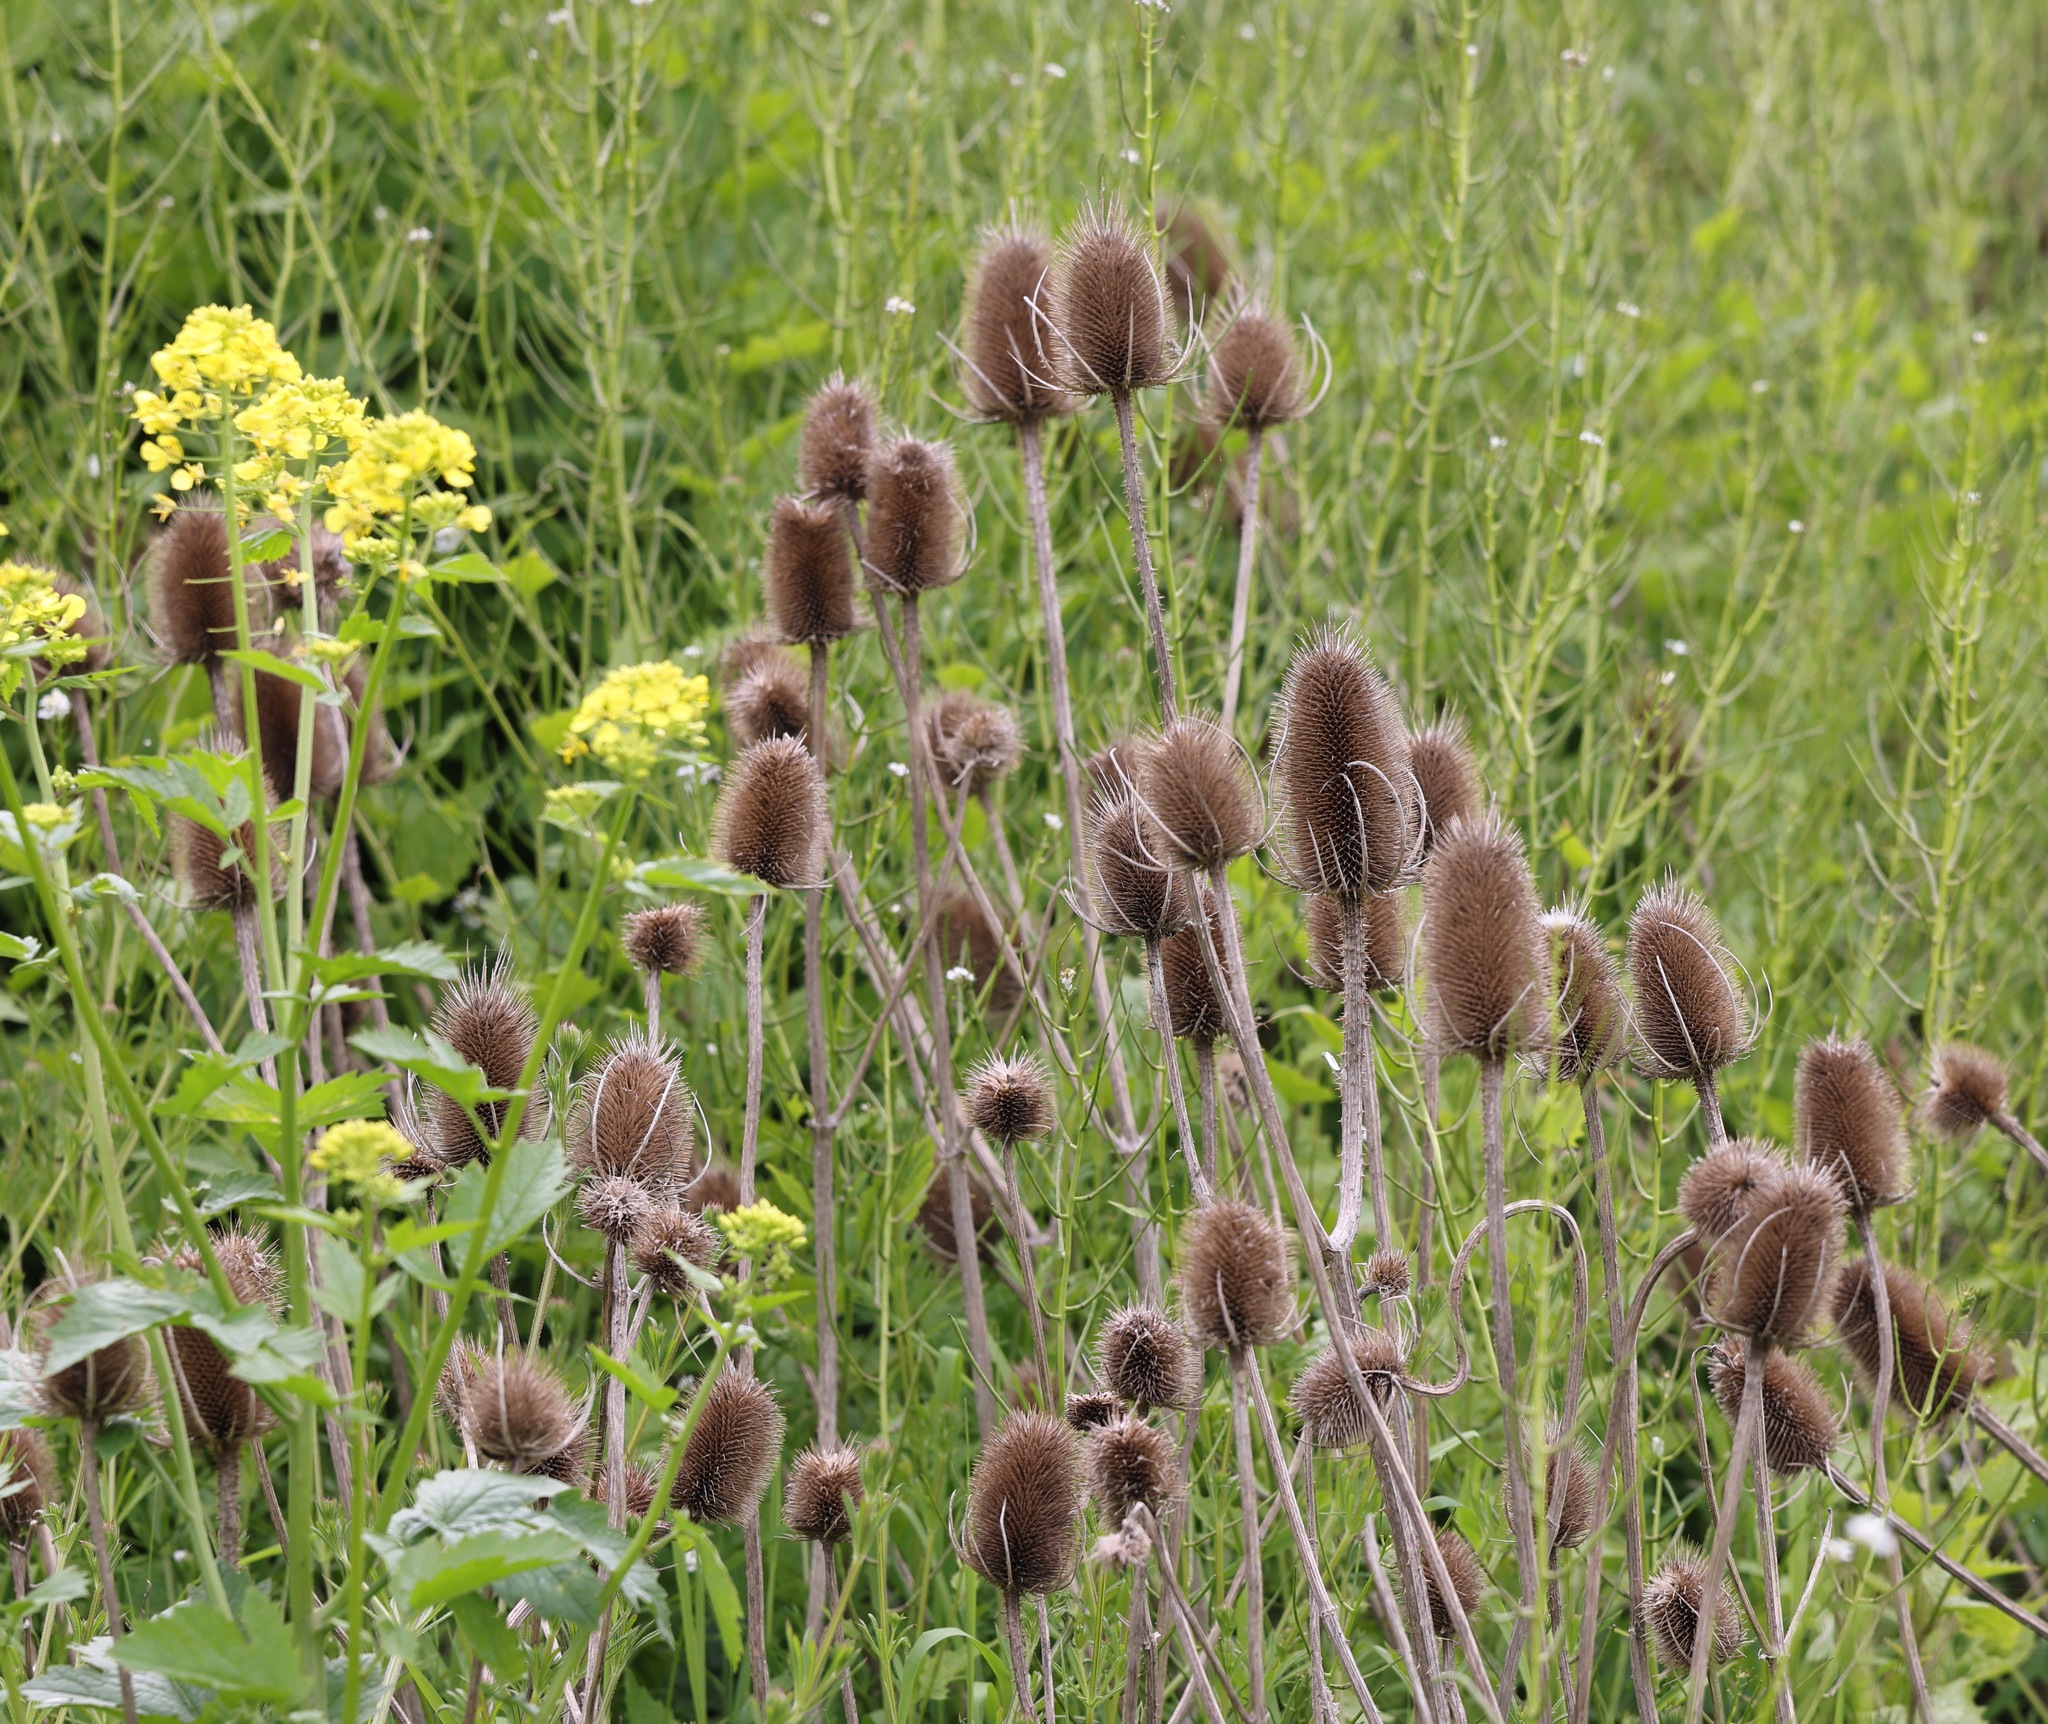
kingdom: Plantae
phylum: Tracheophyta
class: Magnoliopsida
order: Dipsacales
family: Caprifoliaceae
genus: Dipsacus
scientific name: Dipsacus fullonum
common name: Teasel
